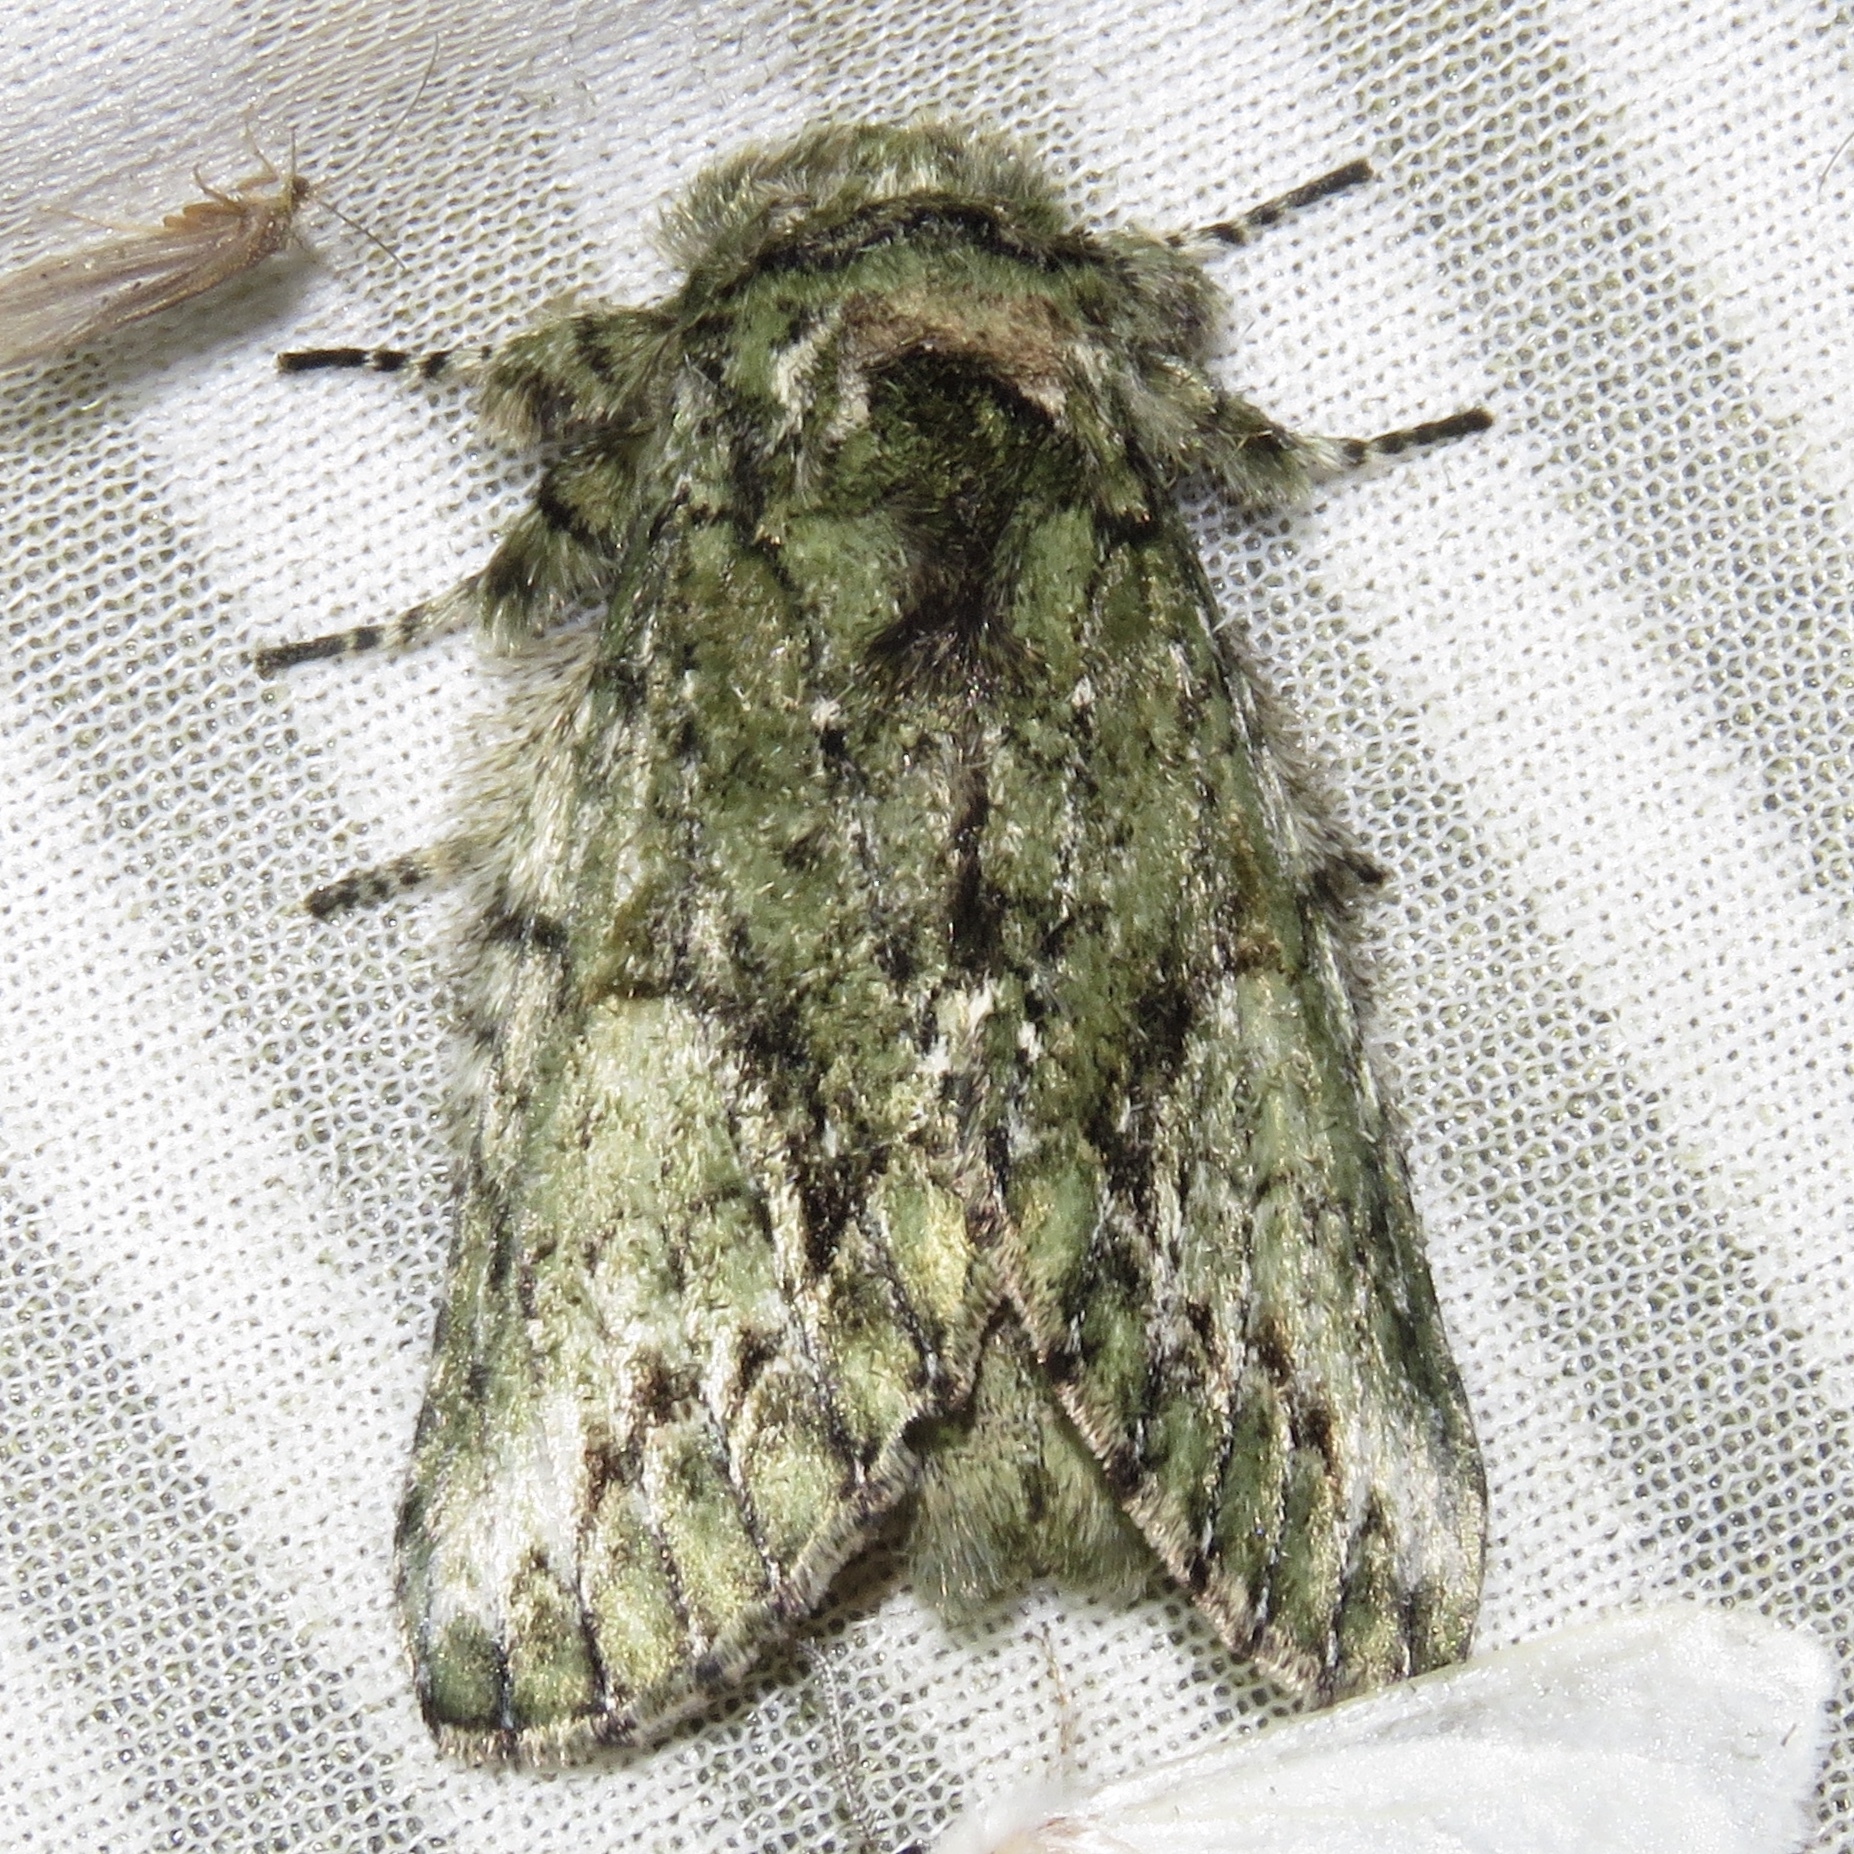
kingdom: Animalia
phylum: Arthropoda
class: Insecta
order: Lepidoptera
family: Notodontidae
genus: Heterocampa
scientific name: Heterocampa
